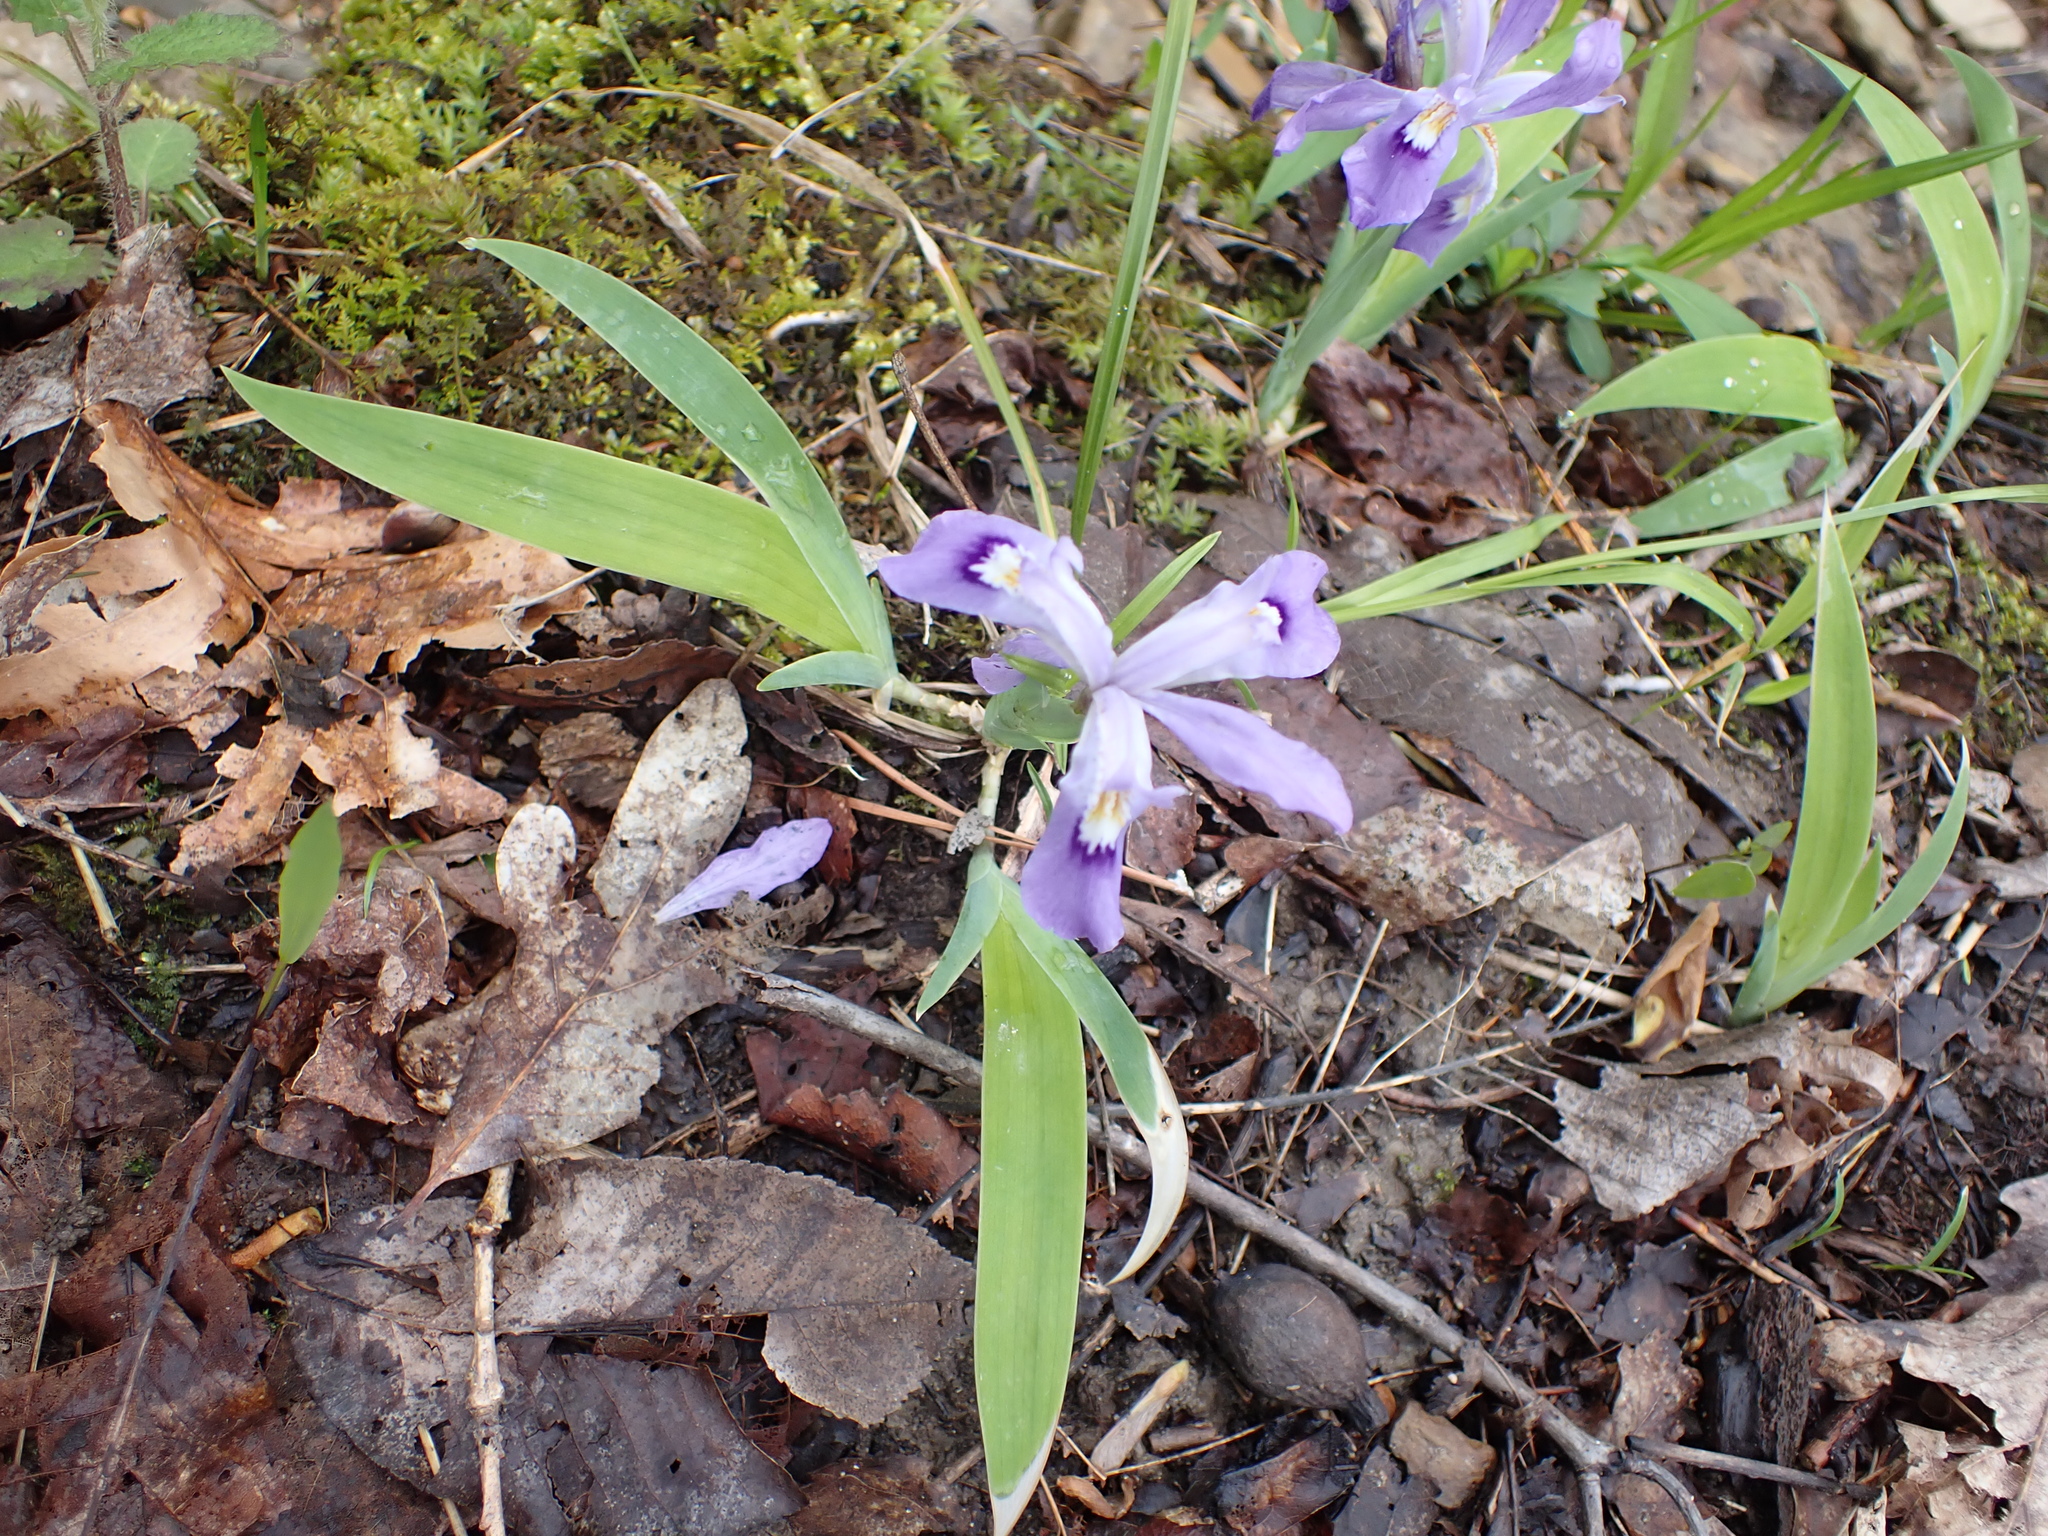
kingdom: Plantae
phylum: Tracheophyta
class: Liliopsida
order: Asparagales
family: Iridaceae
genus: Iris
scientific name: Iris cristata
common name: Crested iris
